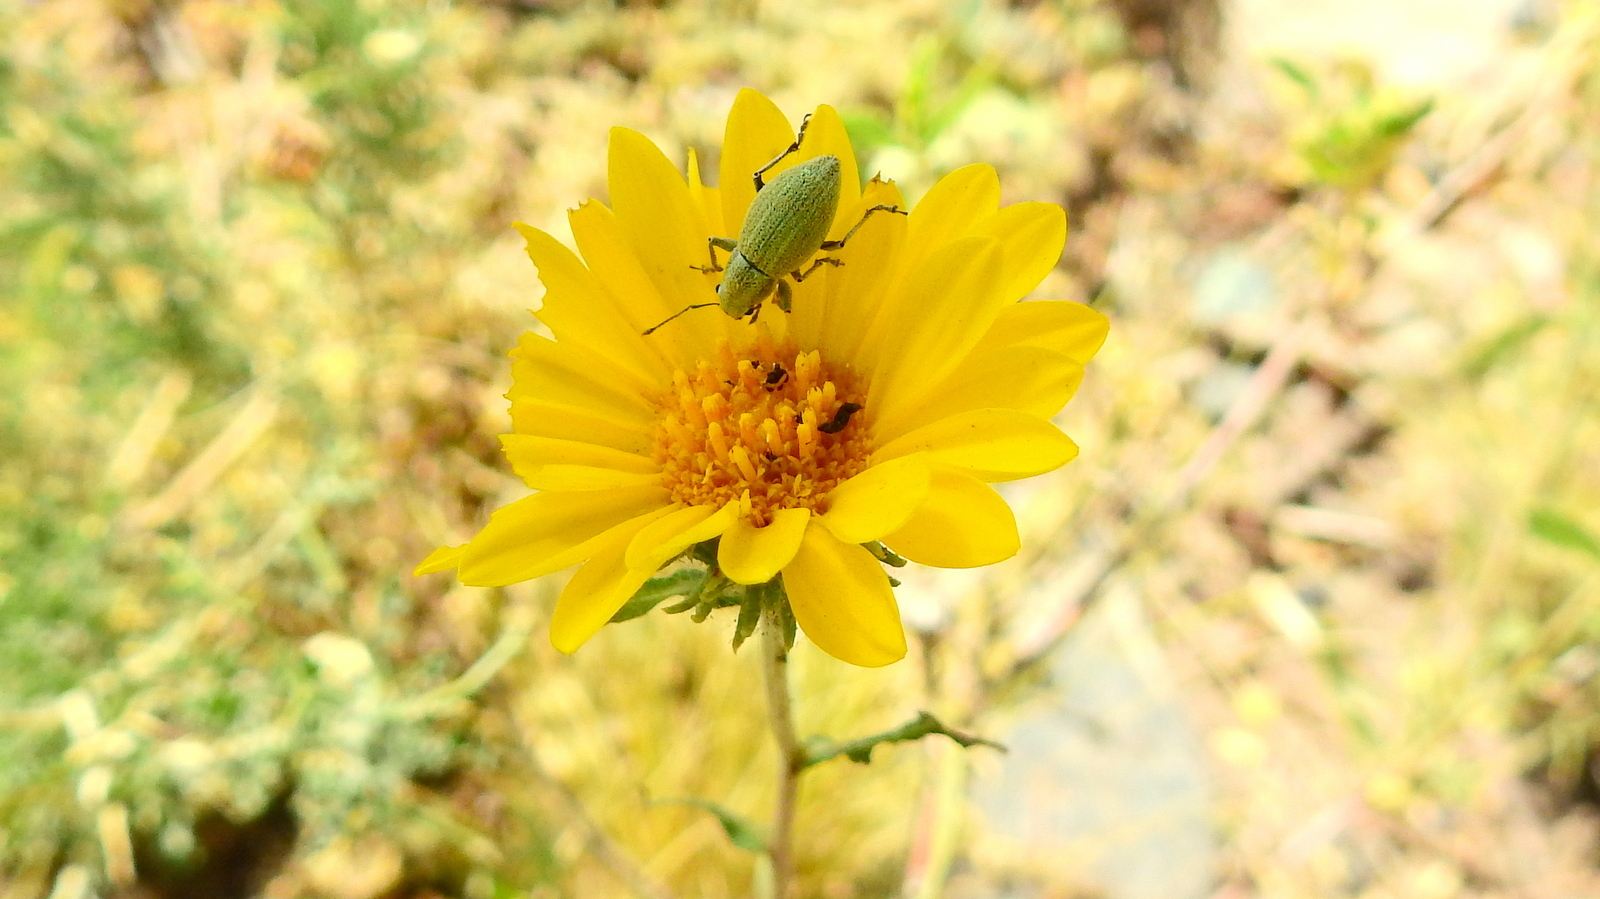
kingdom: Animalia
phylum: Arthropoda
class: Insecta
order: Coleoptera
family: Curculionidae
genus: Naupactus
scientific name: Naupactus auripes
